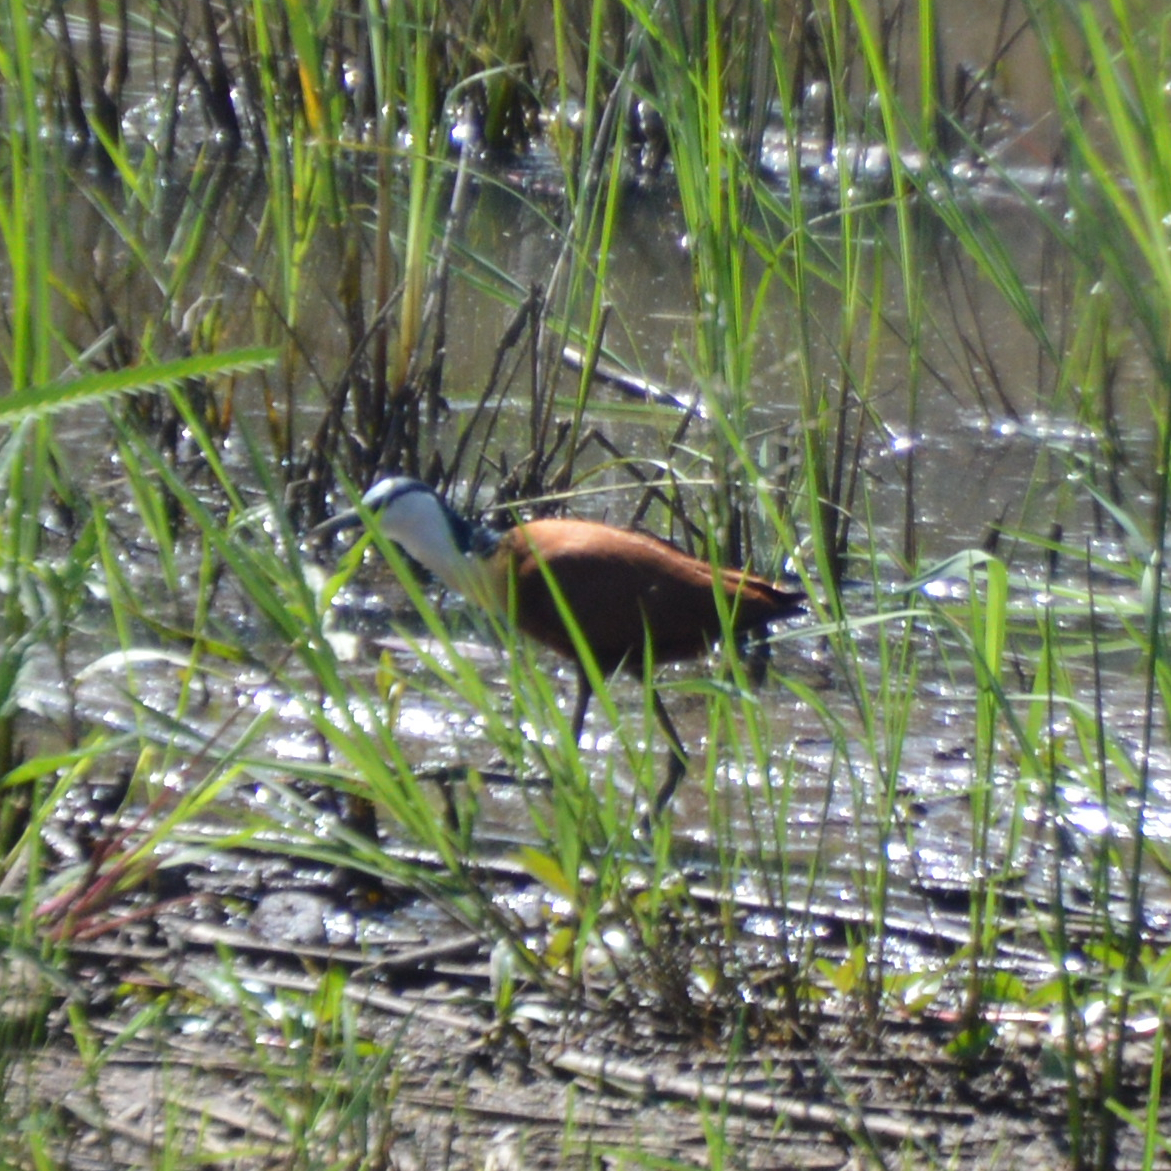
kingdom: Animalia
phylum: Chordata
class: Aves
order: Charadriiformes
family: Jacanidae
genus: Actophilornis
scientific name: Actophilornis africanus
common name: African jacana
